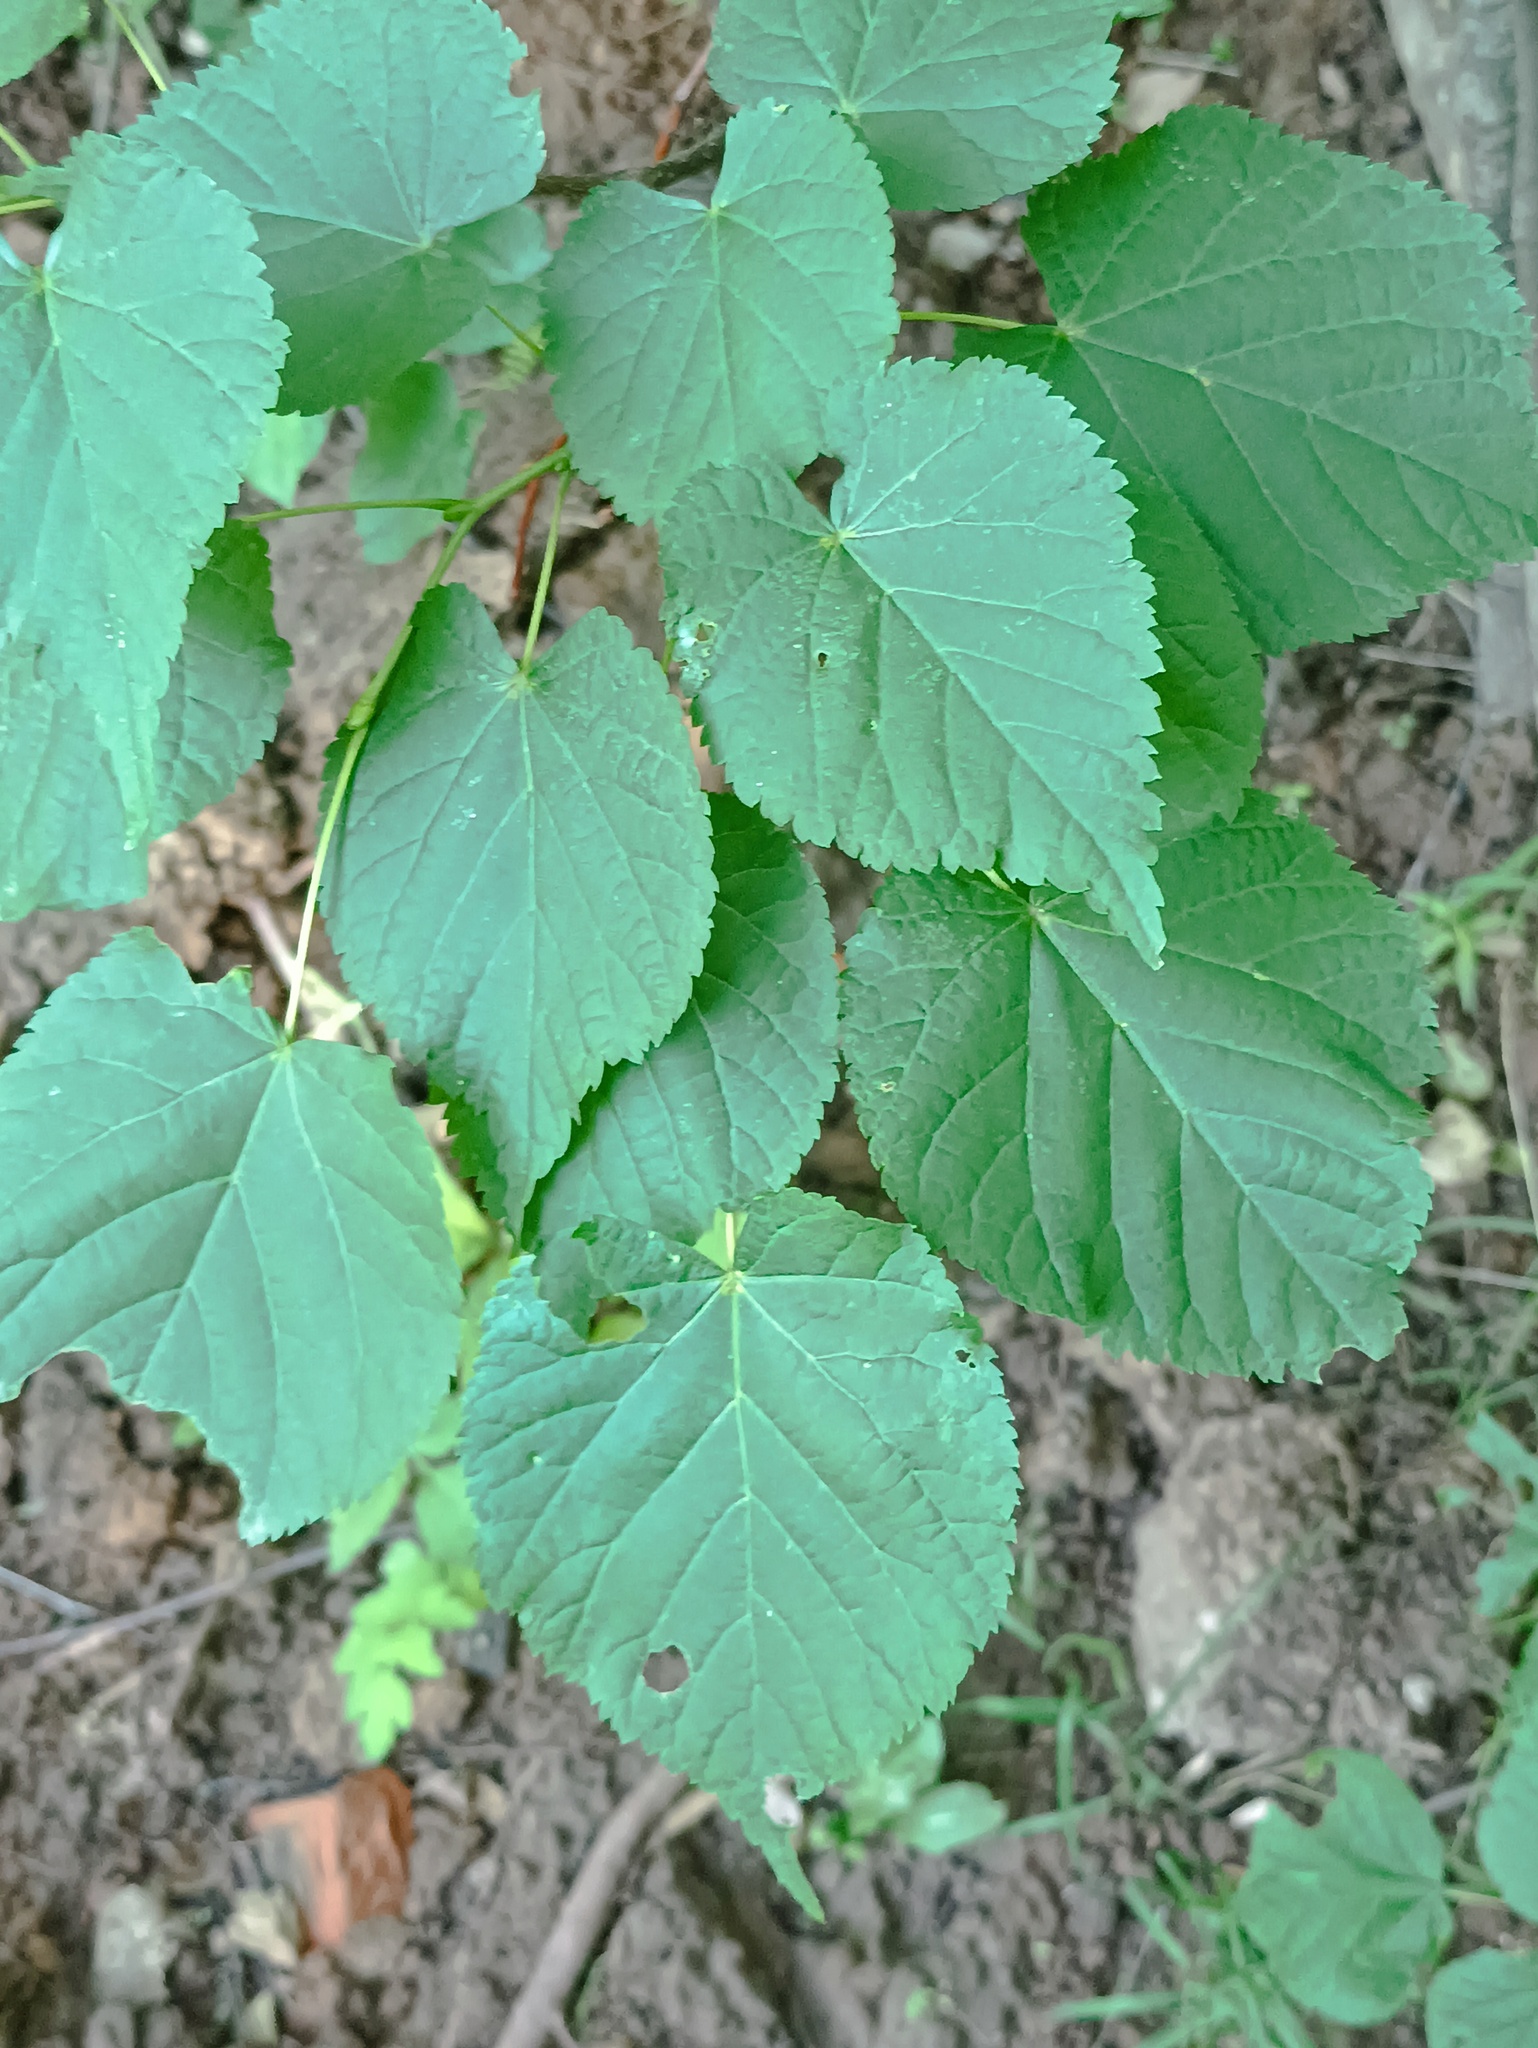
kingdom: Plantae
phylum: Tracheophyta
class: Magnoliopsida
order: Malvales
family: Malvaceae
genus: Tilia
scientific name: Tilia cordata
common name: Small-leaved lime
